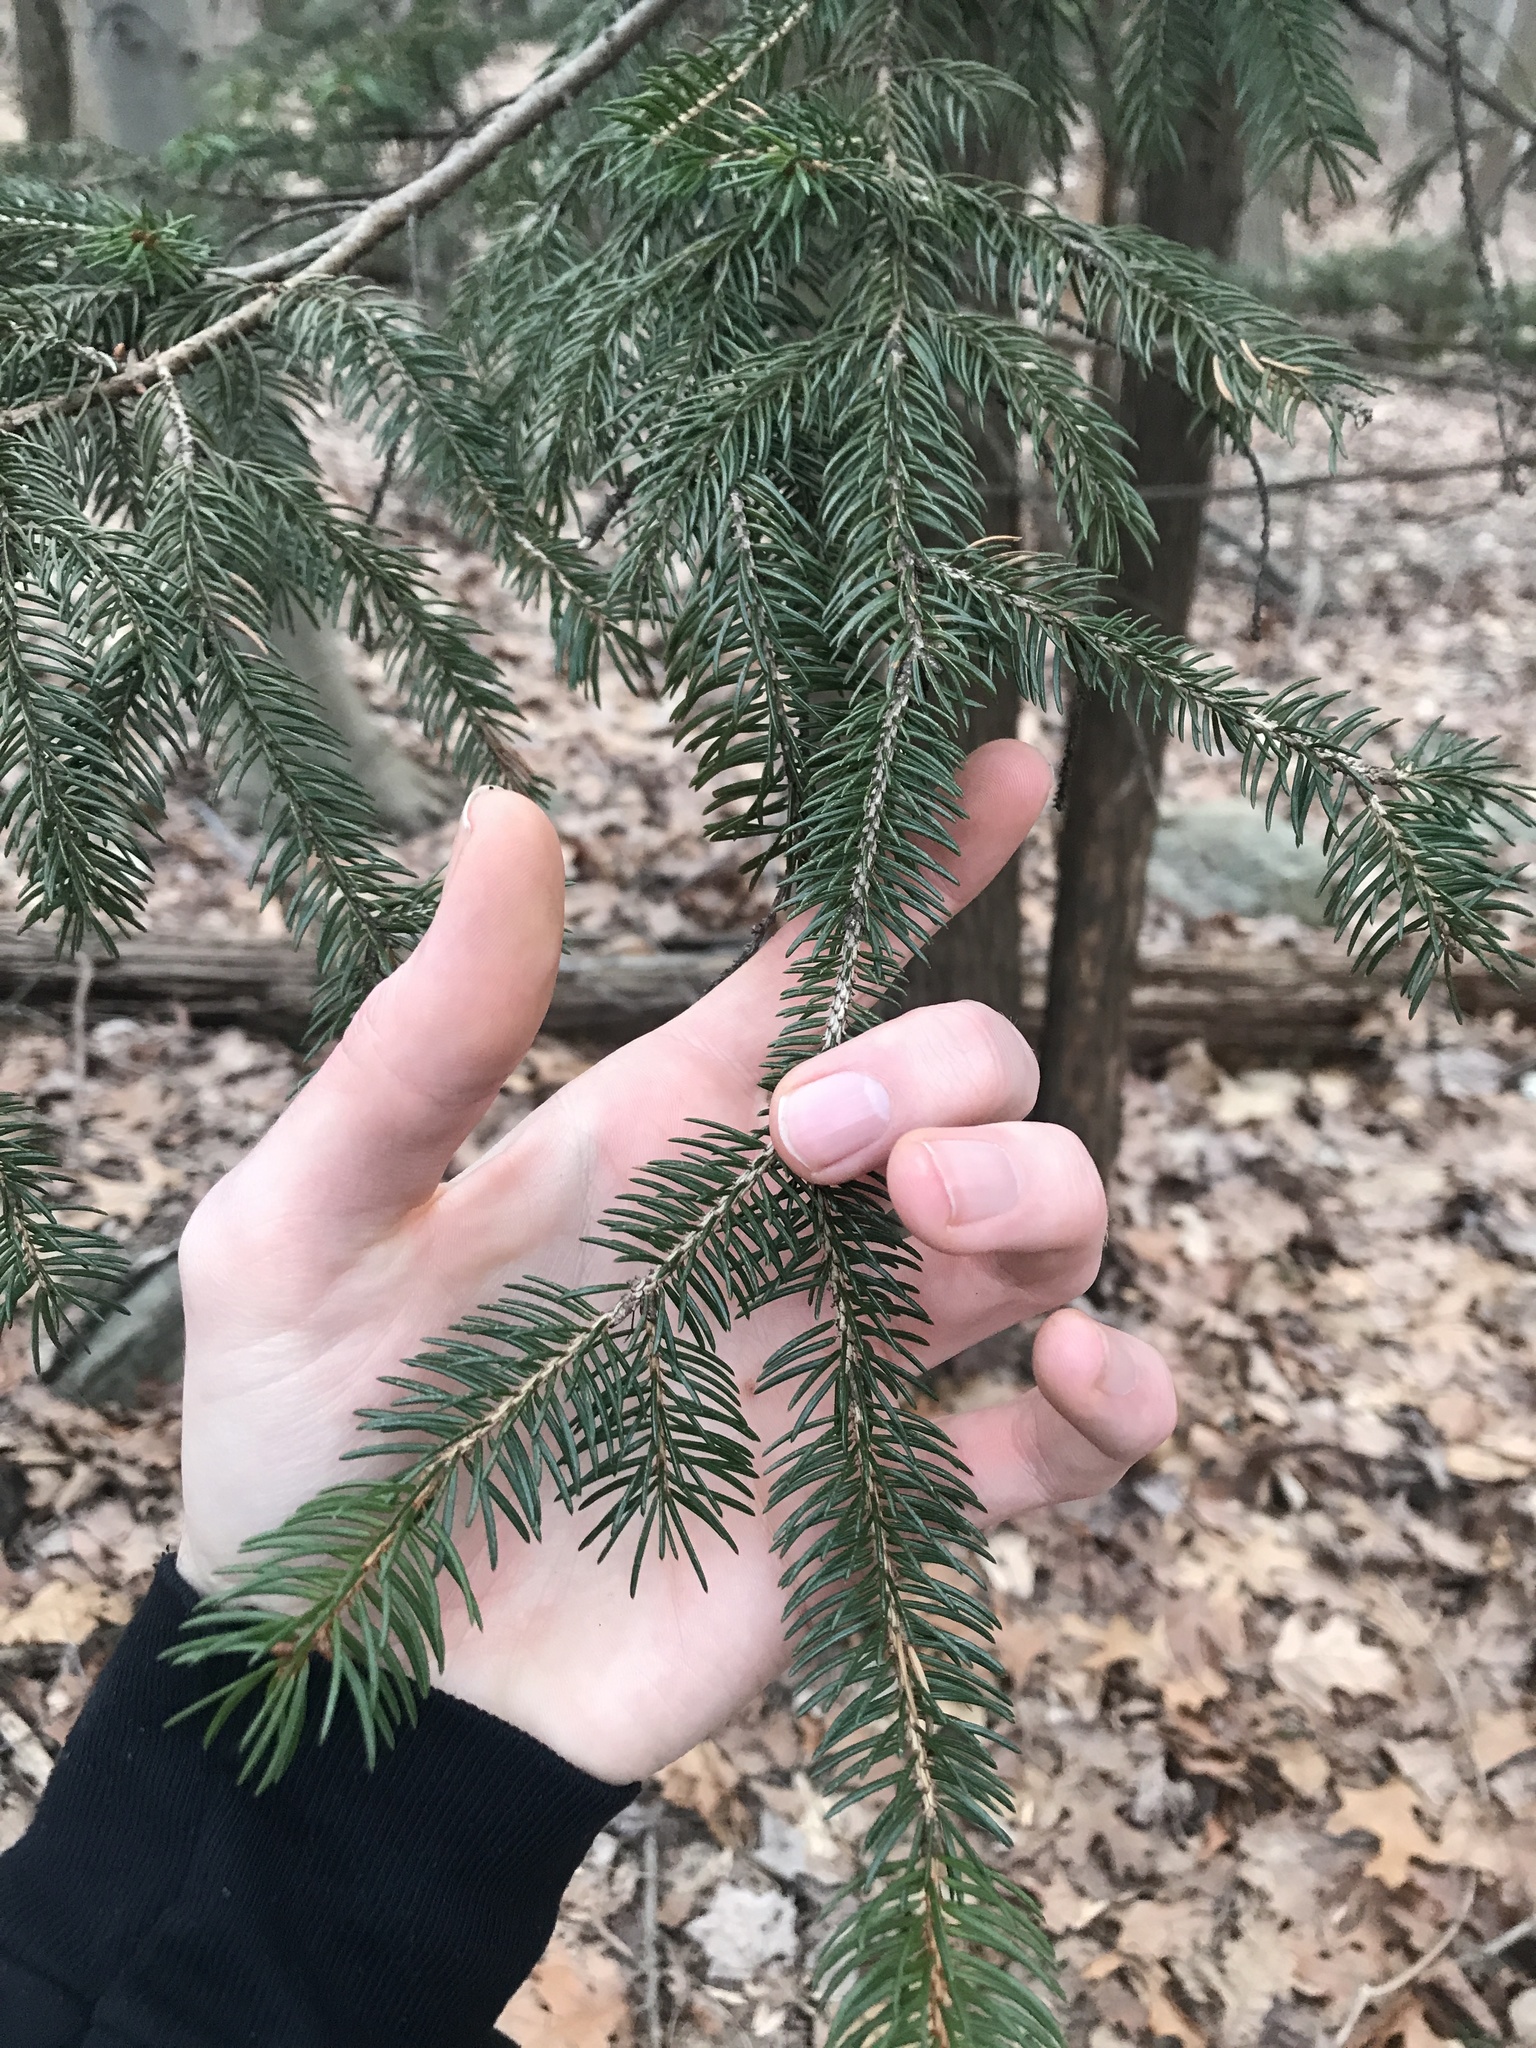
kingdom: Plantae
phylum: Tracheophyta
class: Pinopsida
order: Pinales
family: Pinaceae
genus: Picea
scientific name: Picea abies
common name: Norway spruce
